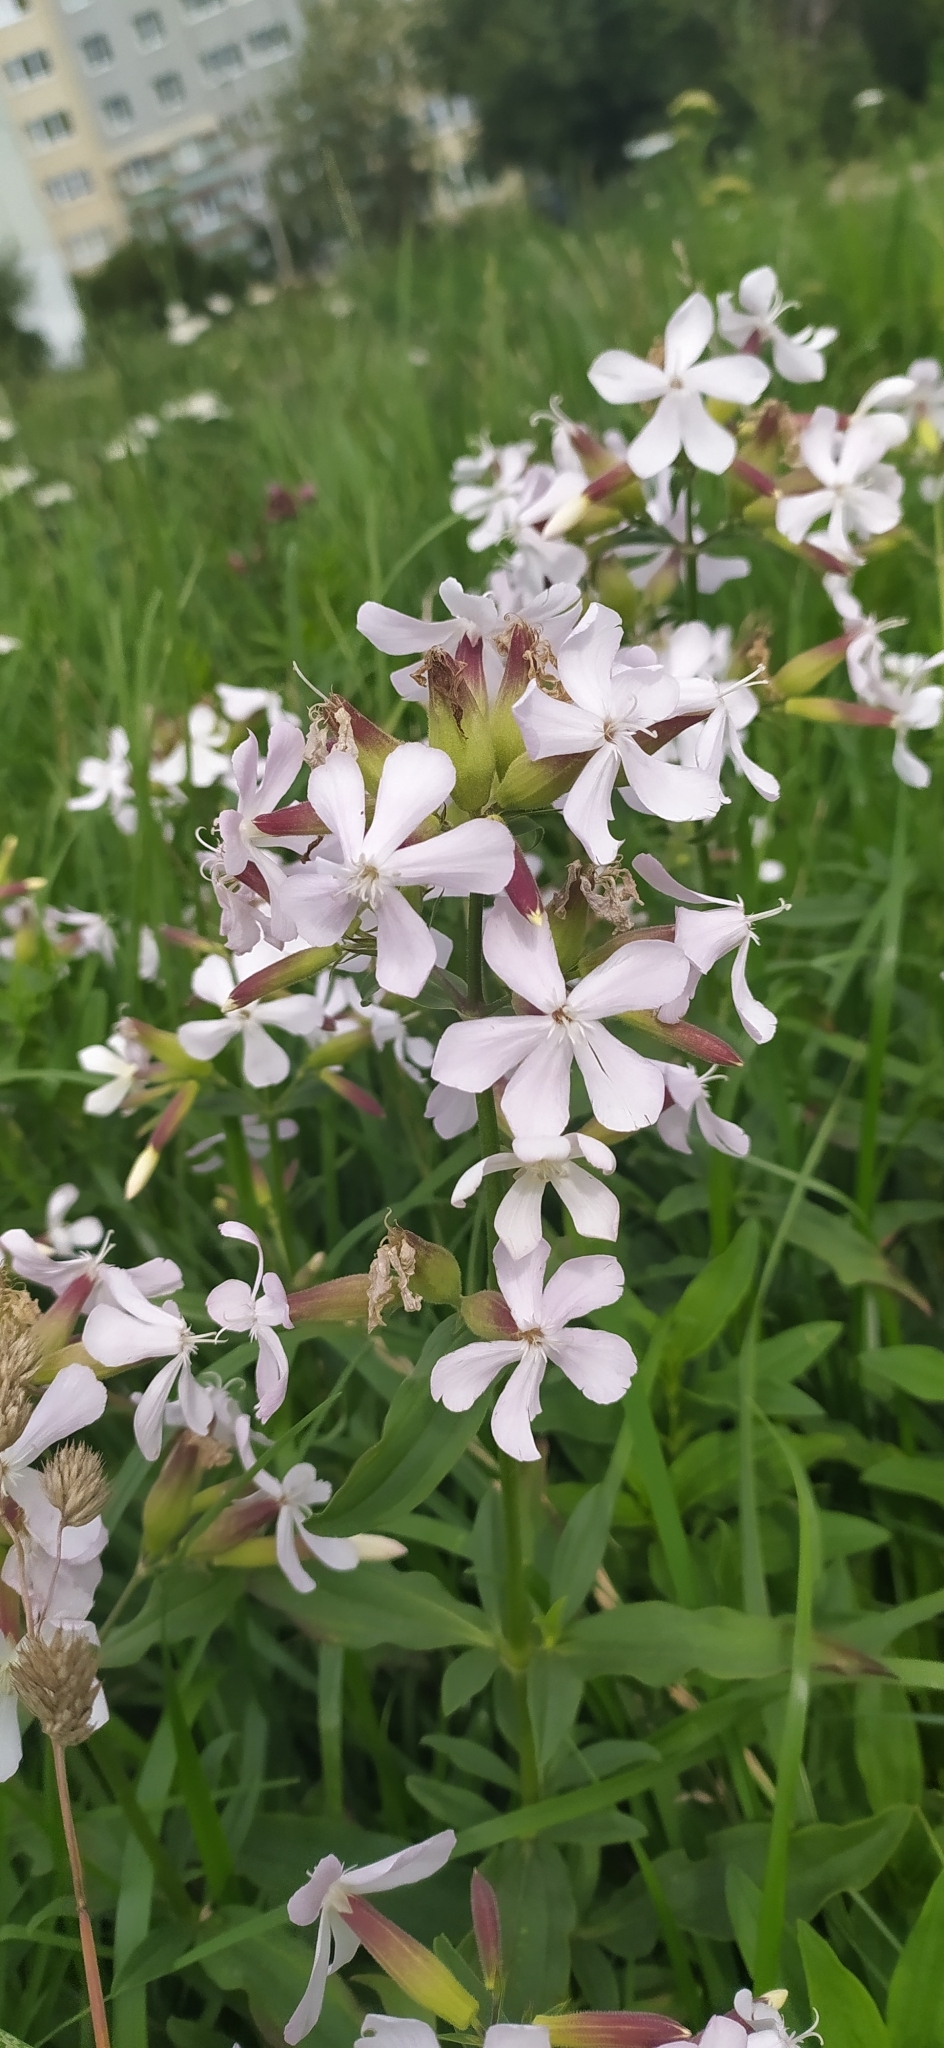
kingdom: Plantae
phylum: Tracheophyta
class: Magnoliopsida
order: Caryophyllales
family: Caryophyllaceae
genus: Saponaria
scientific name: Saponaria officinalis
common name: Soapwort
